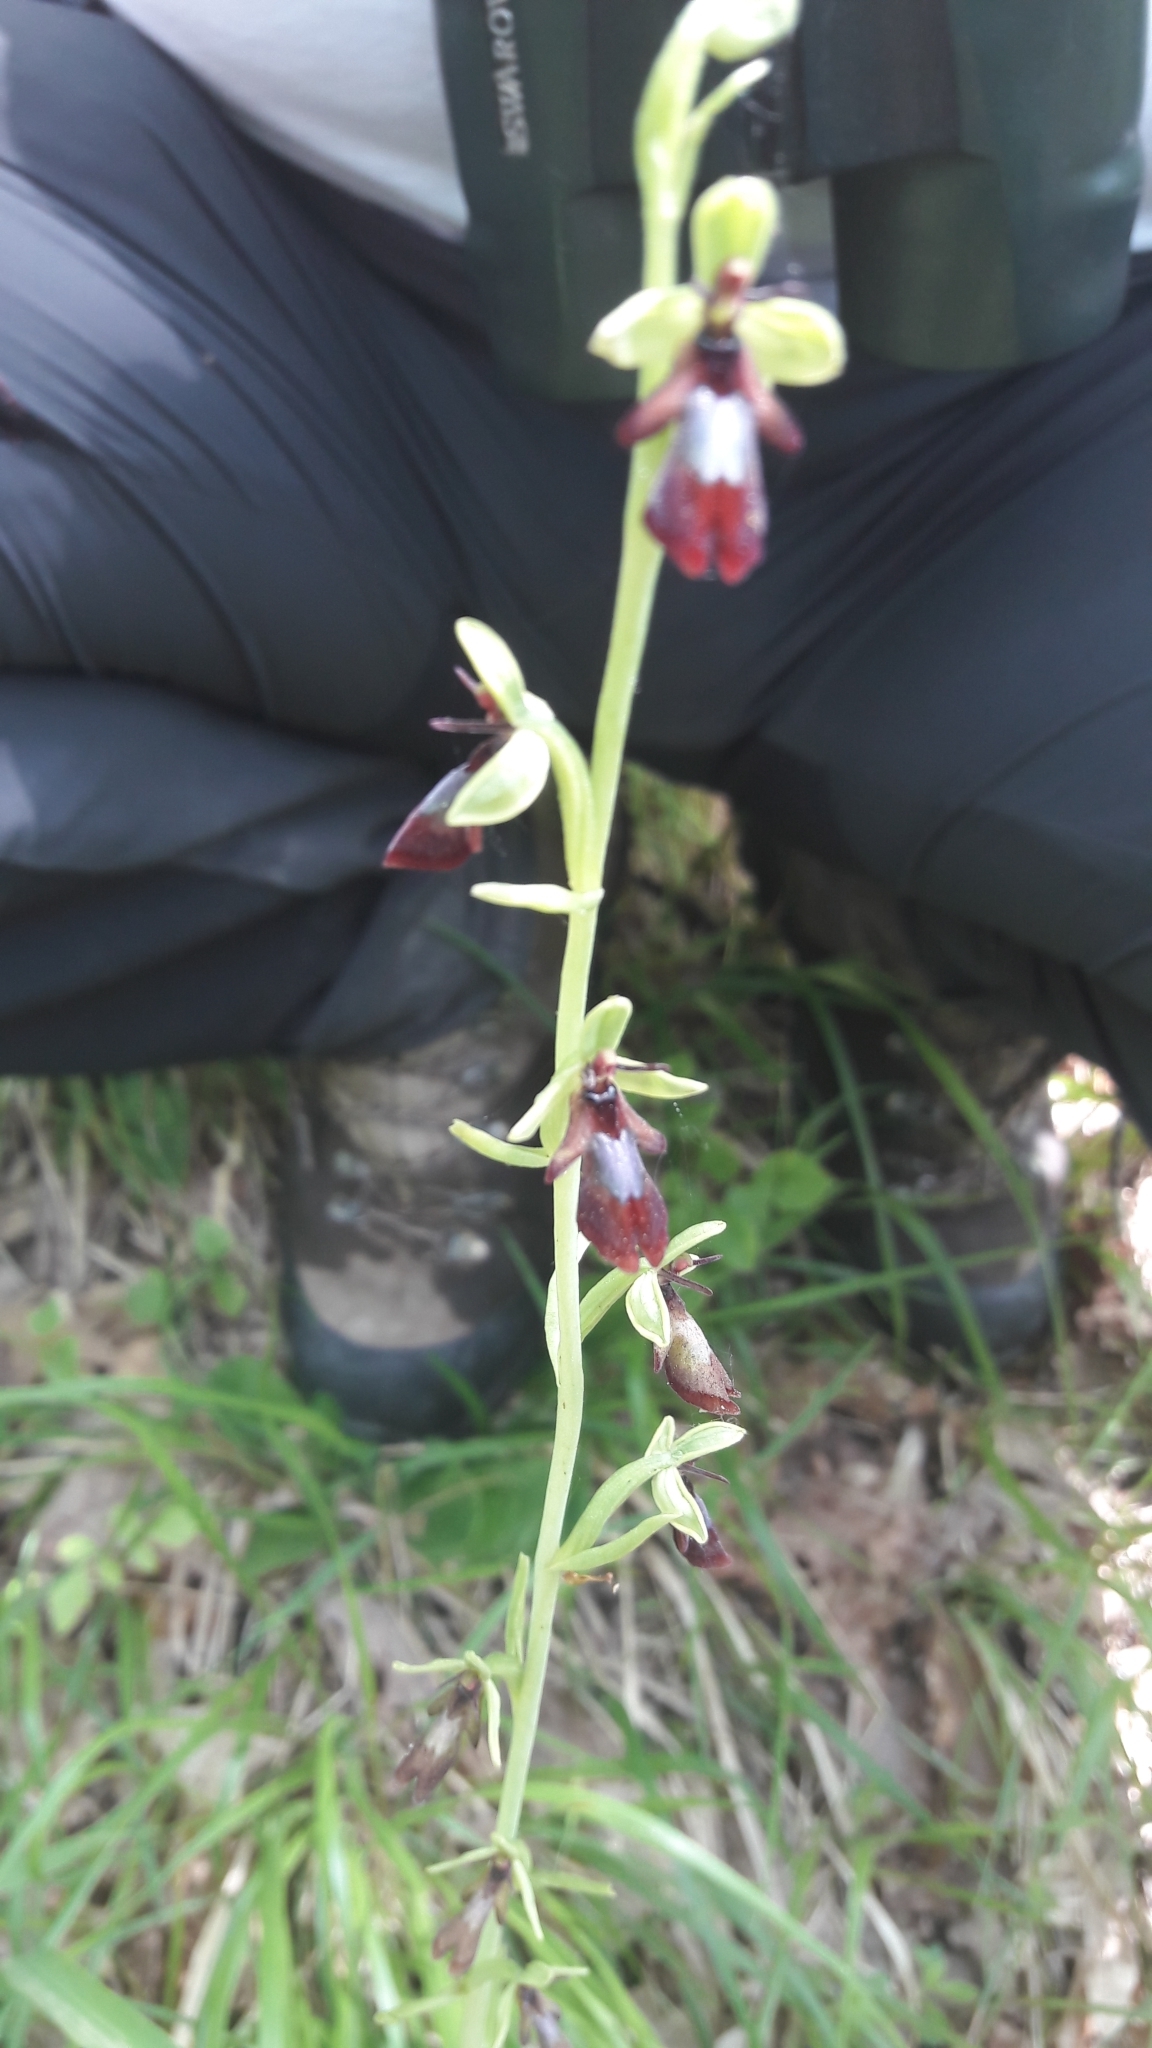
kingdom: Plantae
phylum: Tracheophyta
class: Liliopsida
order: Asparagales
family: Orchidaceae
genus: Ophrys
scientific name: Ophrys insectifera
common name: Fly orchid
